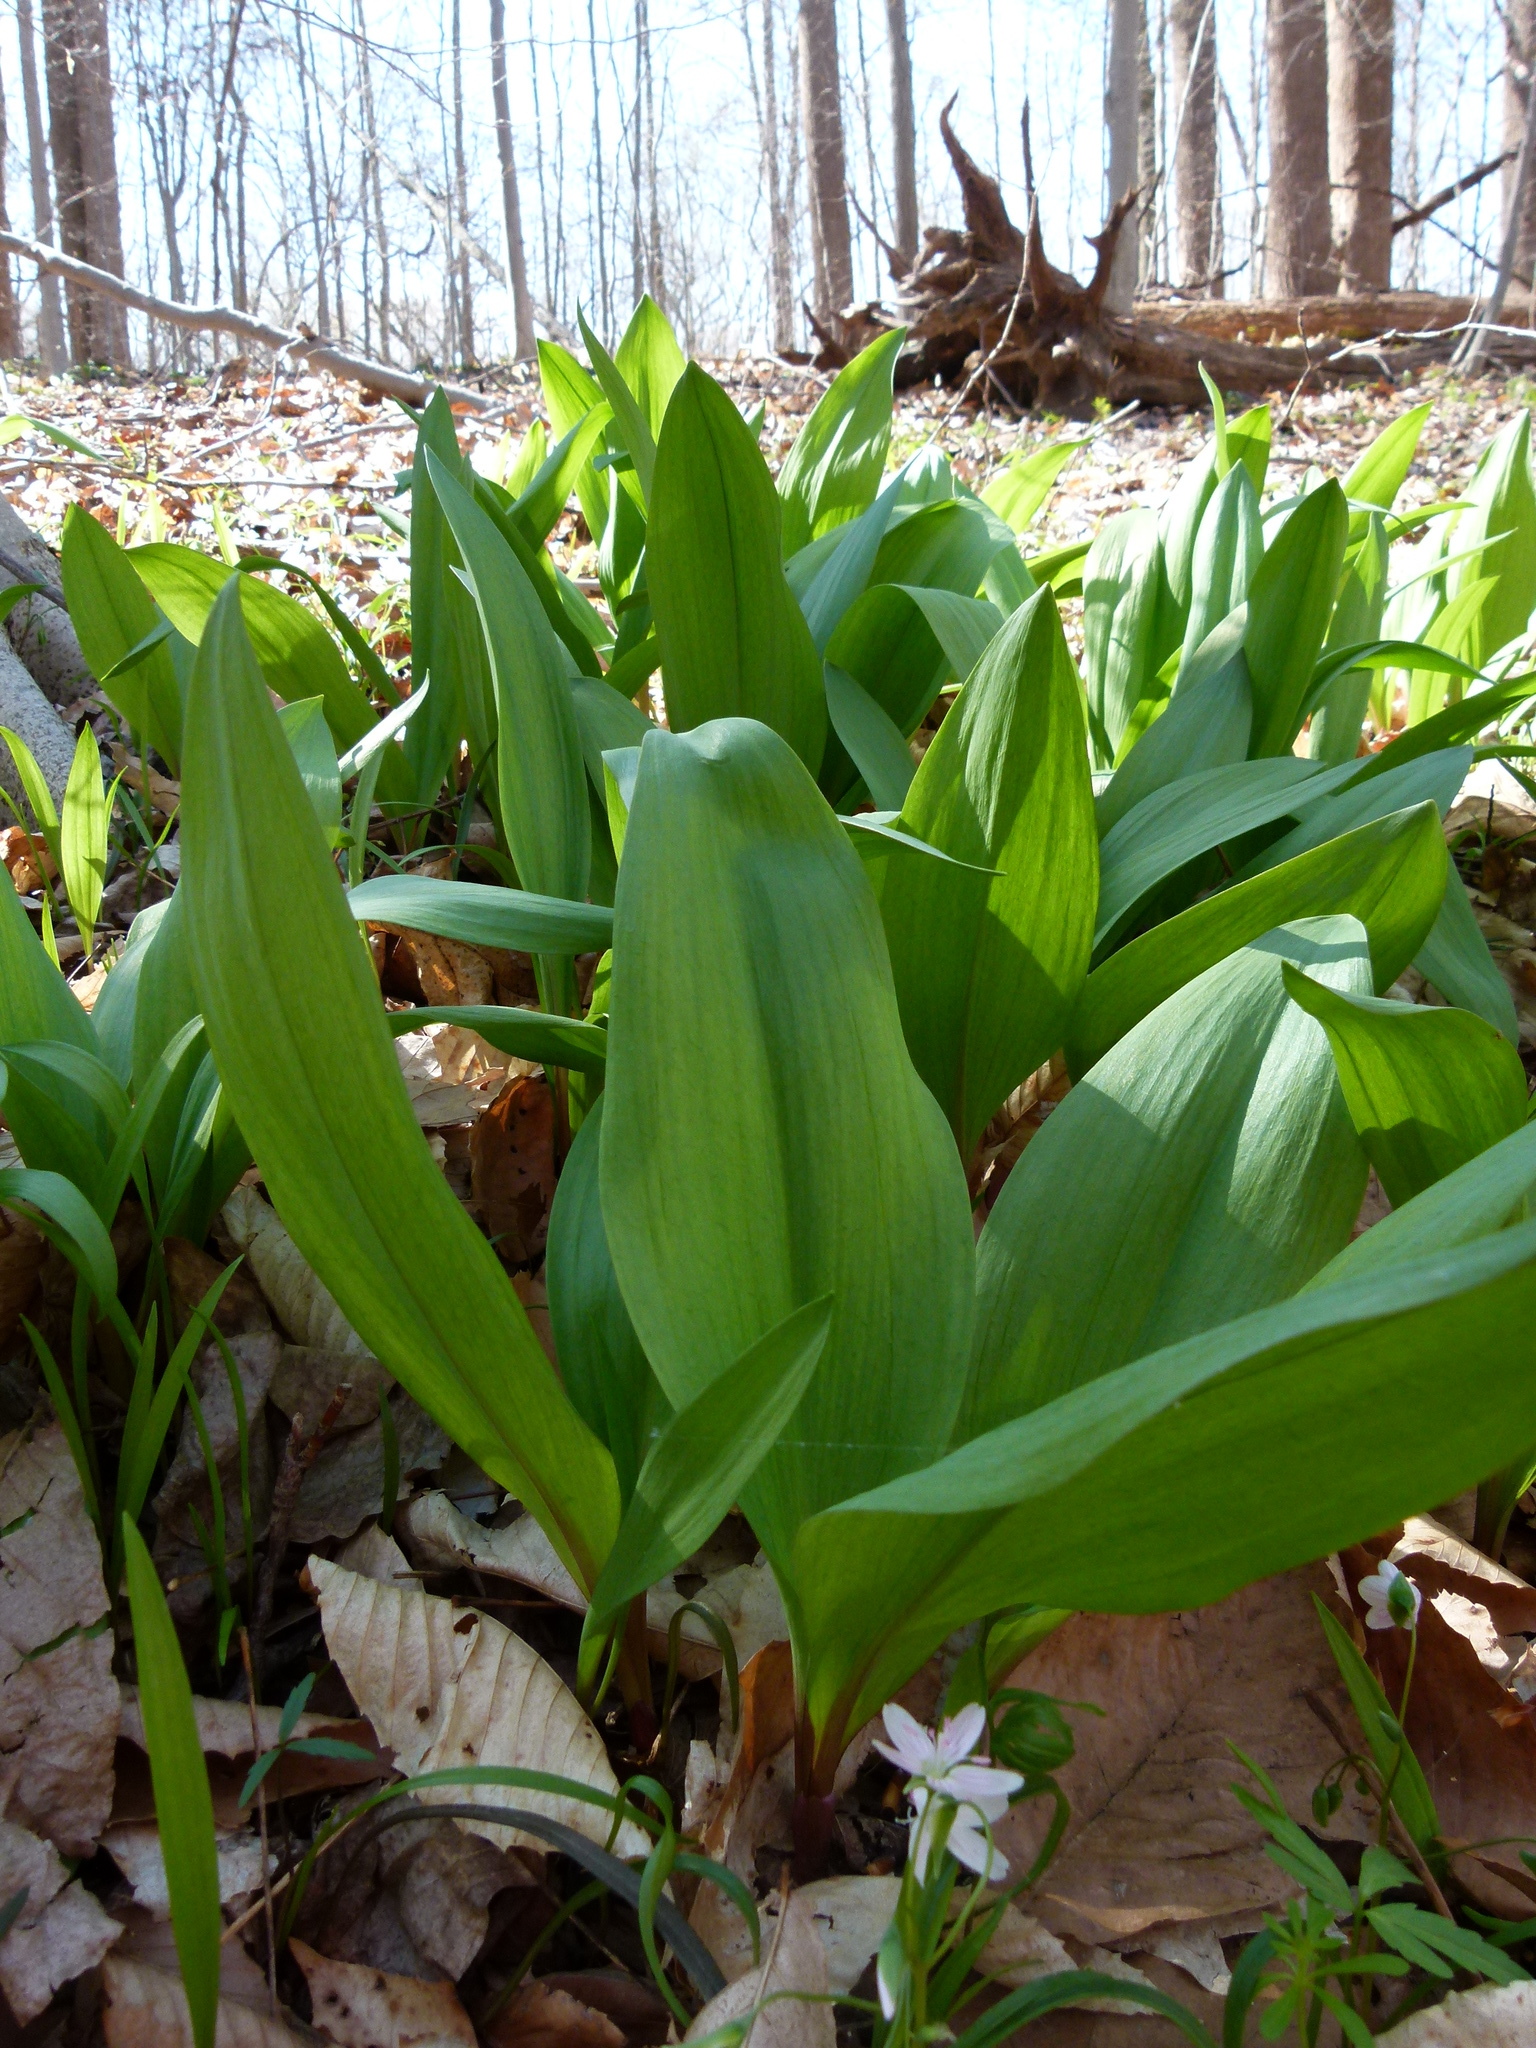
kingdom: Plantae
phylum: Tracheophyta
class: Liliopsida
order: Asparagales
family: Amaryllidaceae
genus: Allium
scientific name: Allium tricoccum
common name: Ramp
